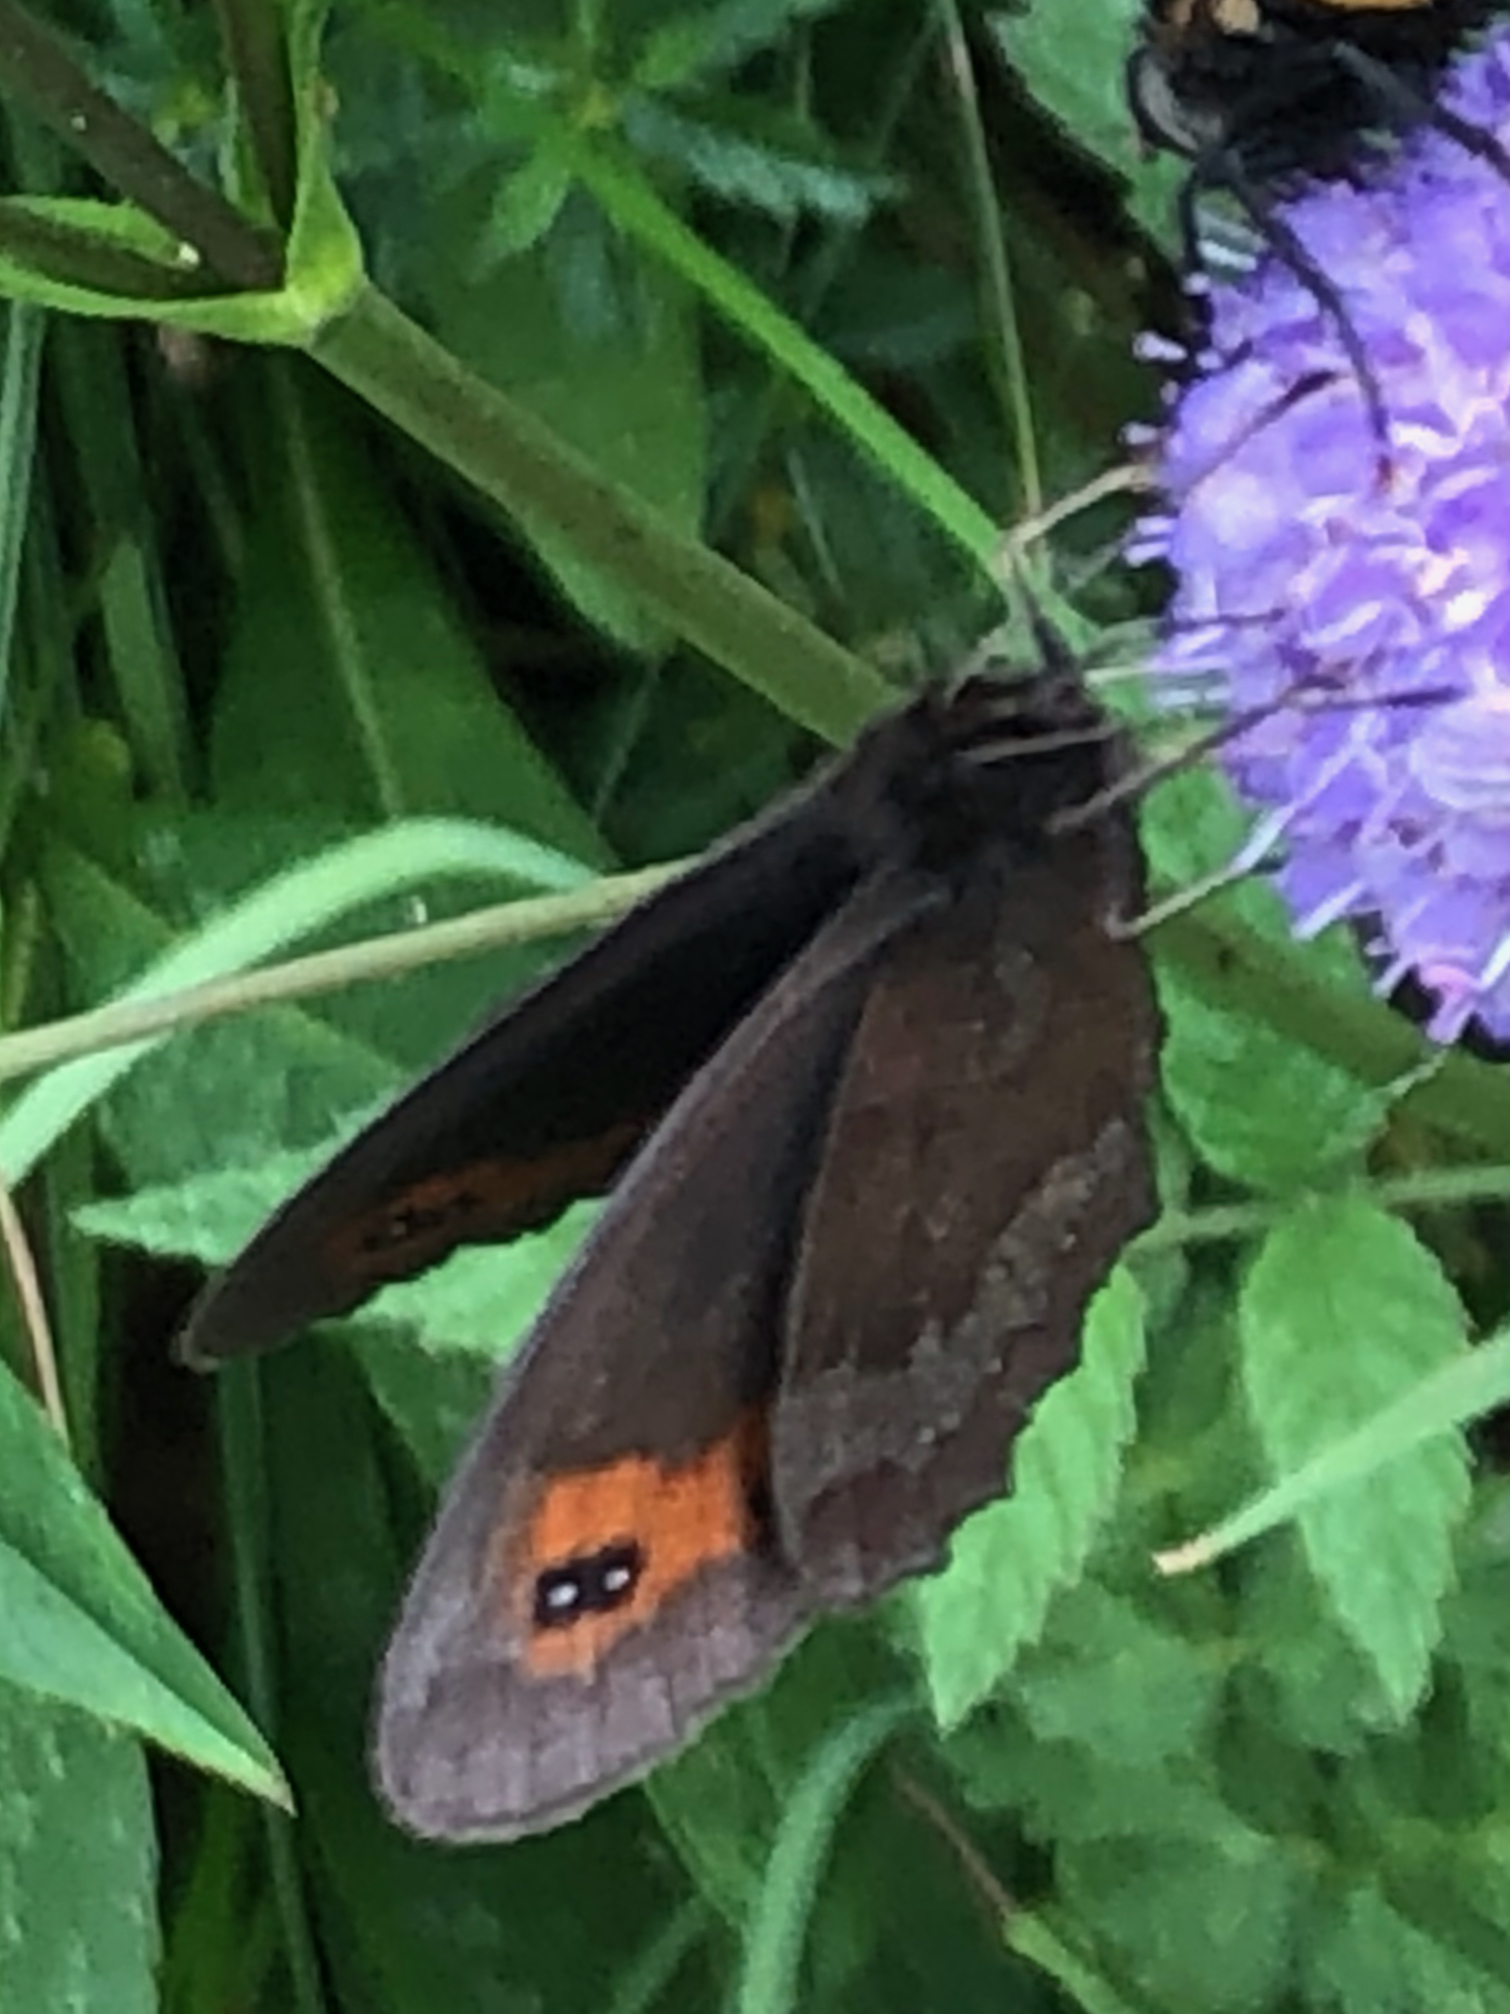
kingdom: Animalia
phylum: Arthropoda
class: Insecta
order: Lepidoptera
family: Nymphalidae
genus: Erebia
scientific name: Erebia aethiops
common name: Scotch argus
